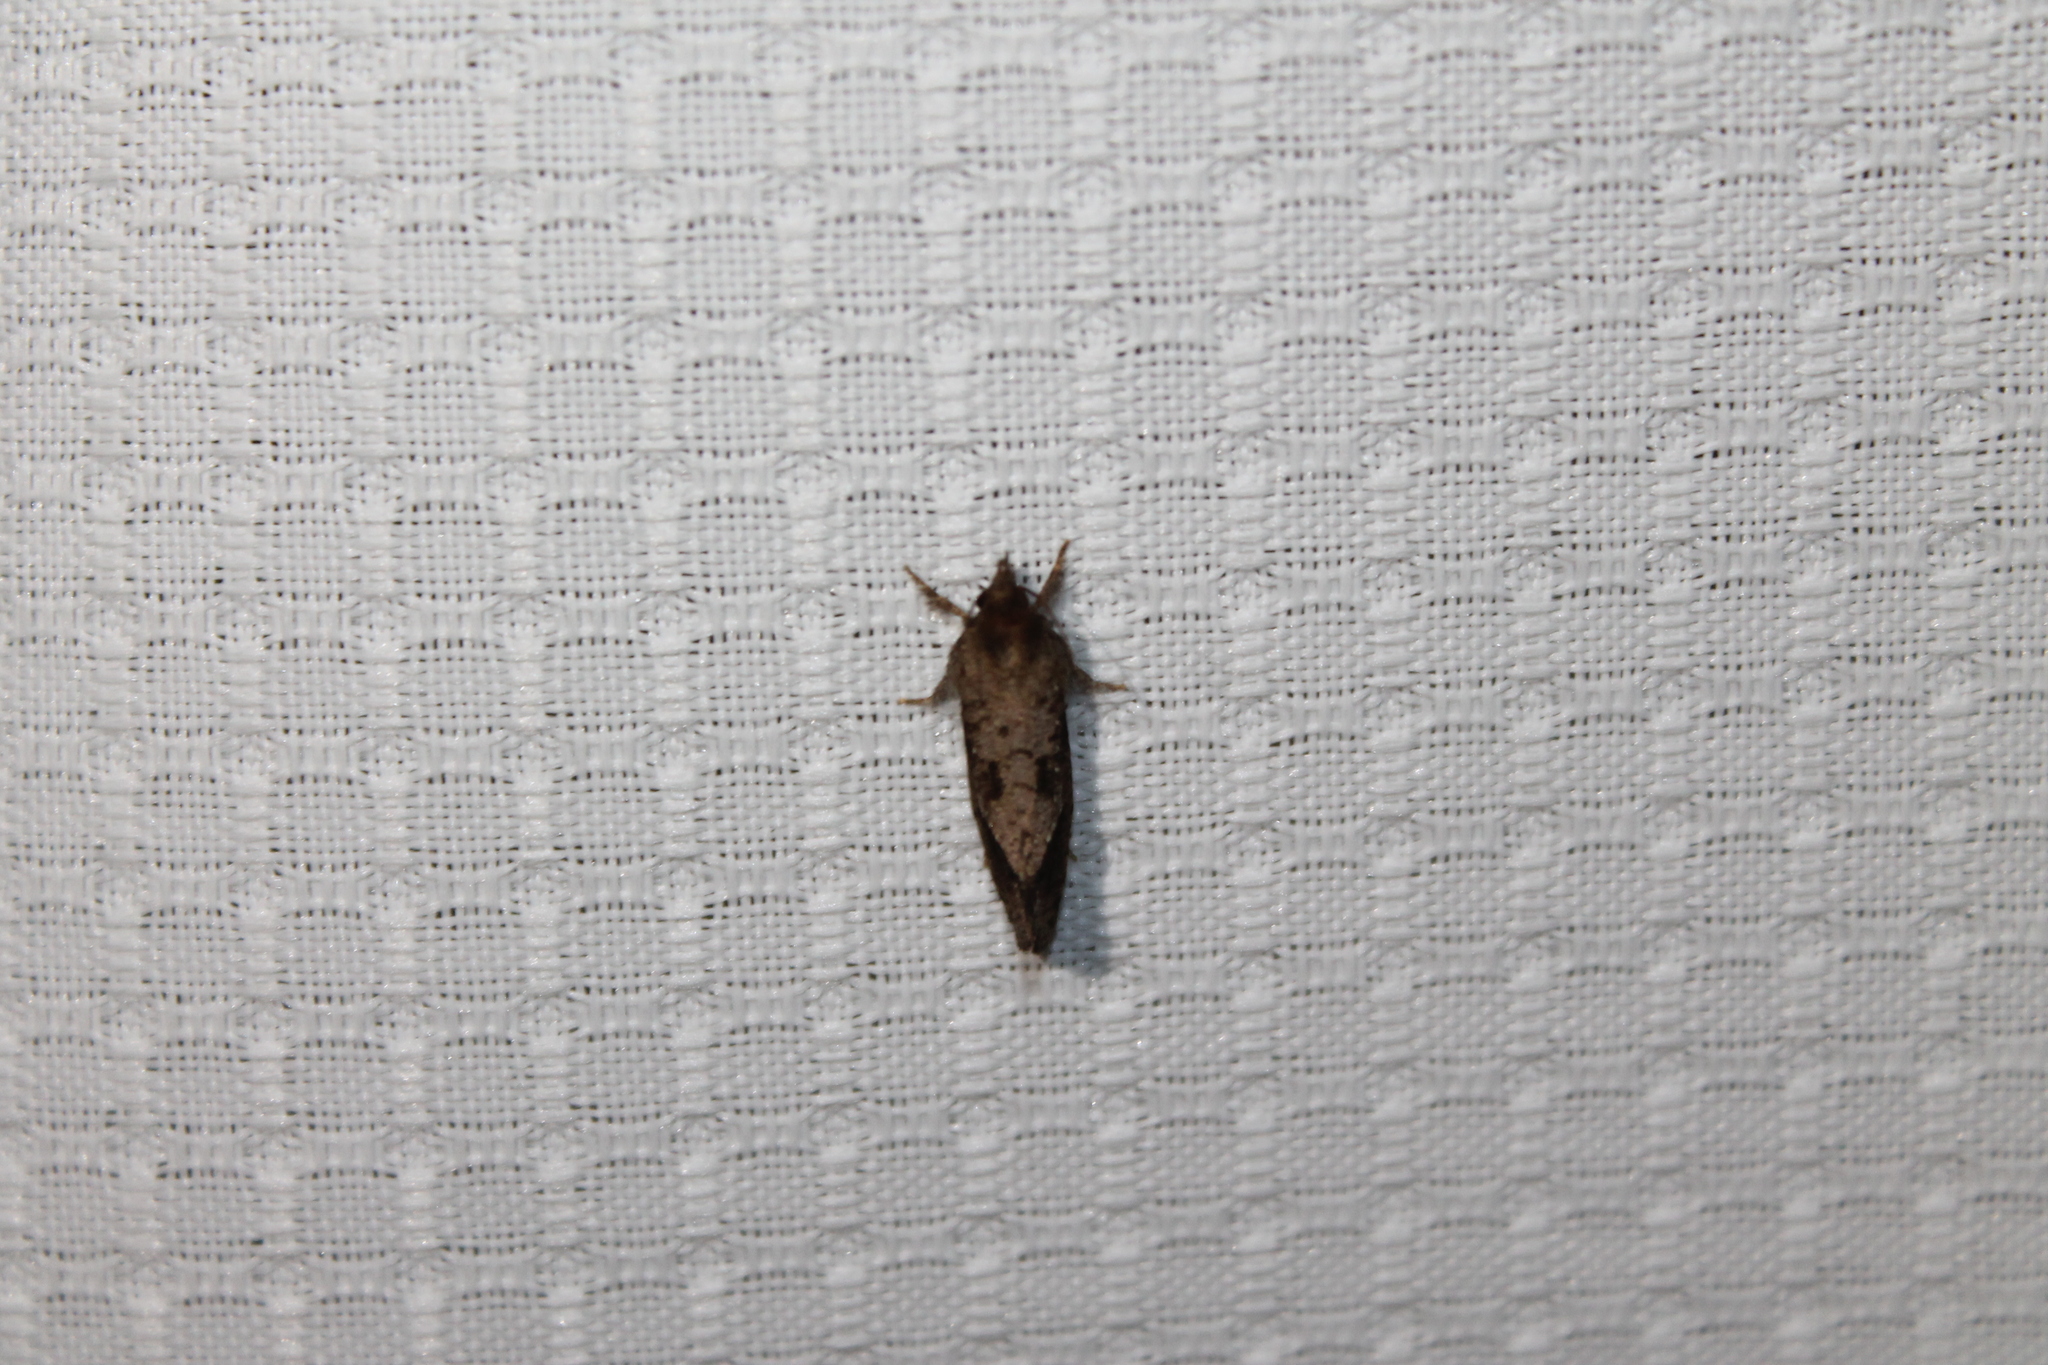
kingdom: Animalia
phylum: Arthropoda
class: Insecta
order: Lepidoptera
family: Tineidae
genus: Acrolophus
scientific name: Acrolophus texanella
